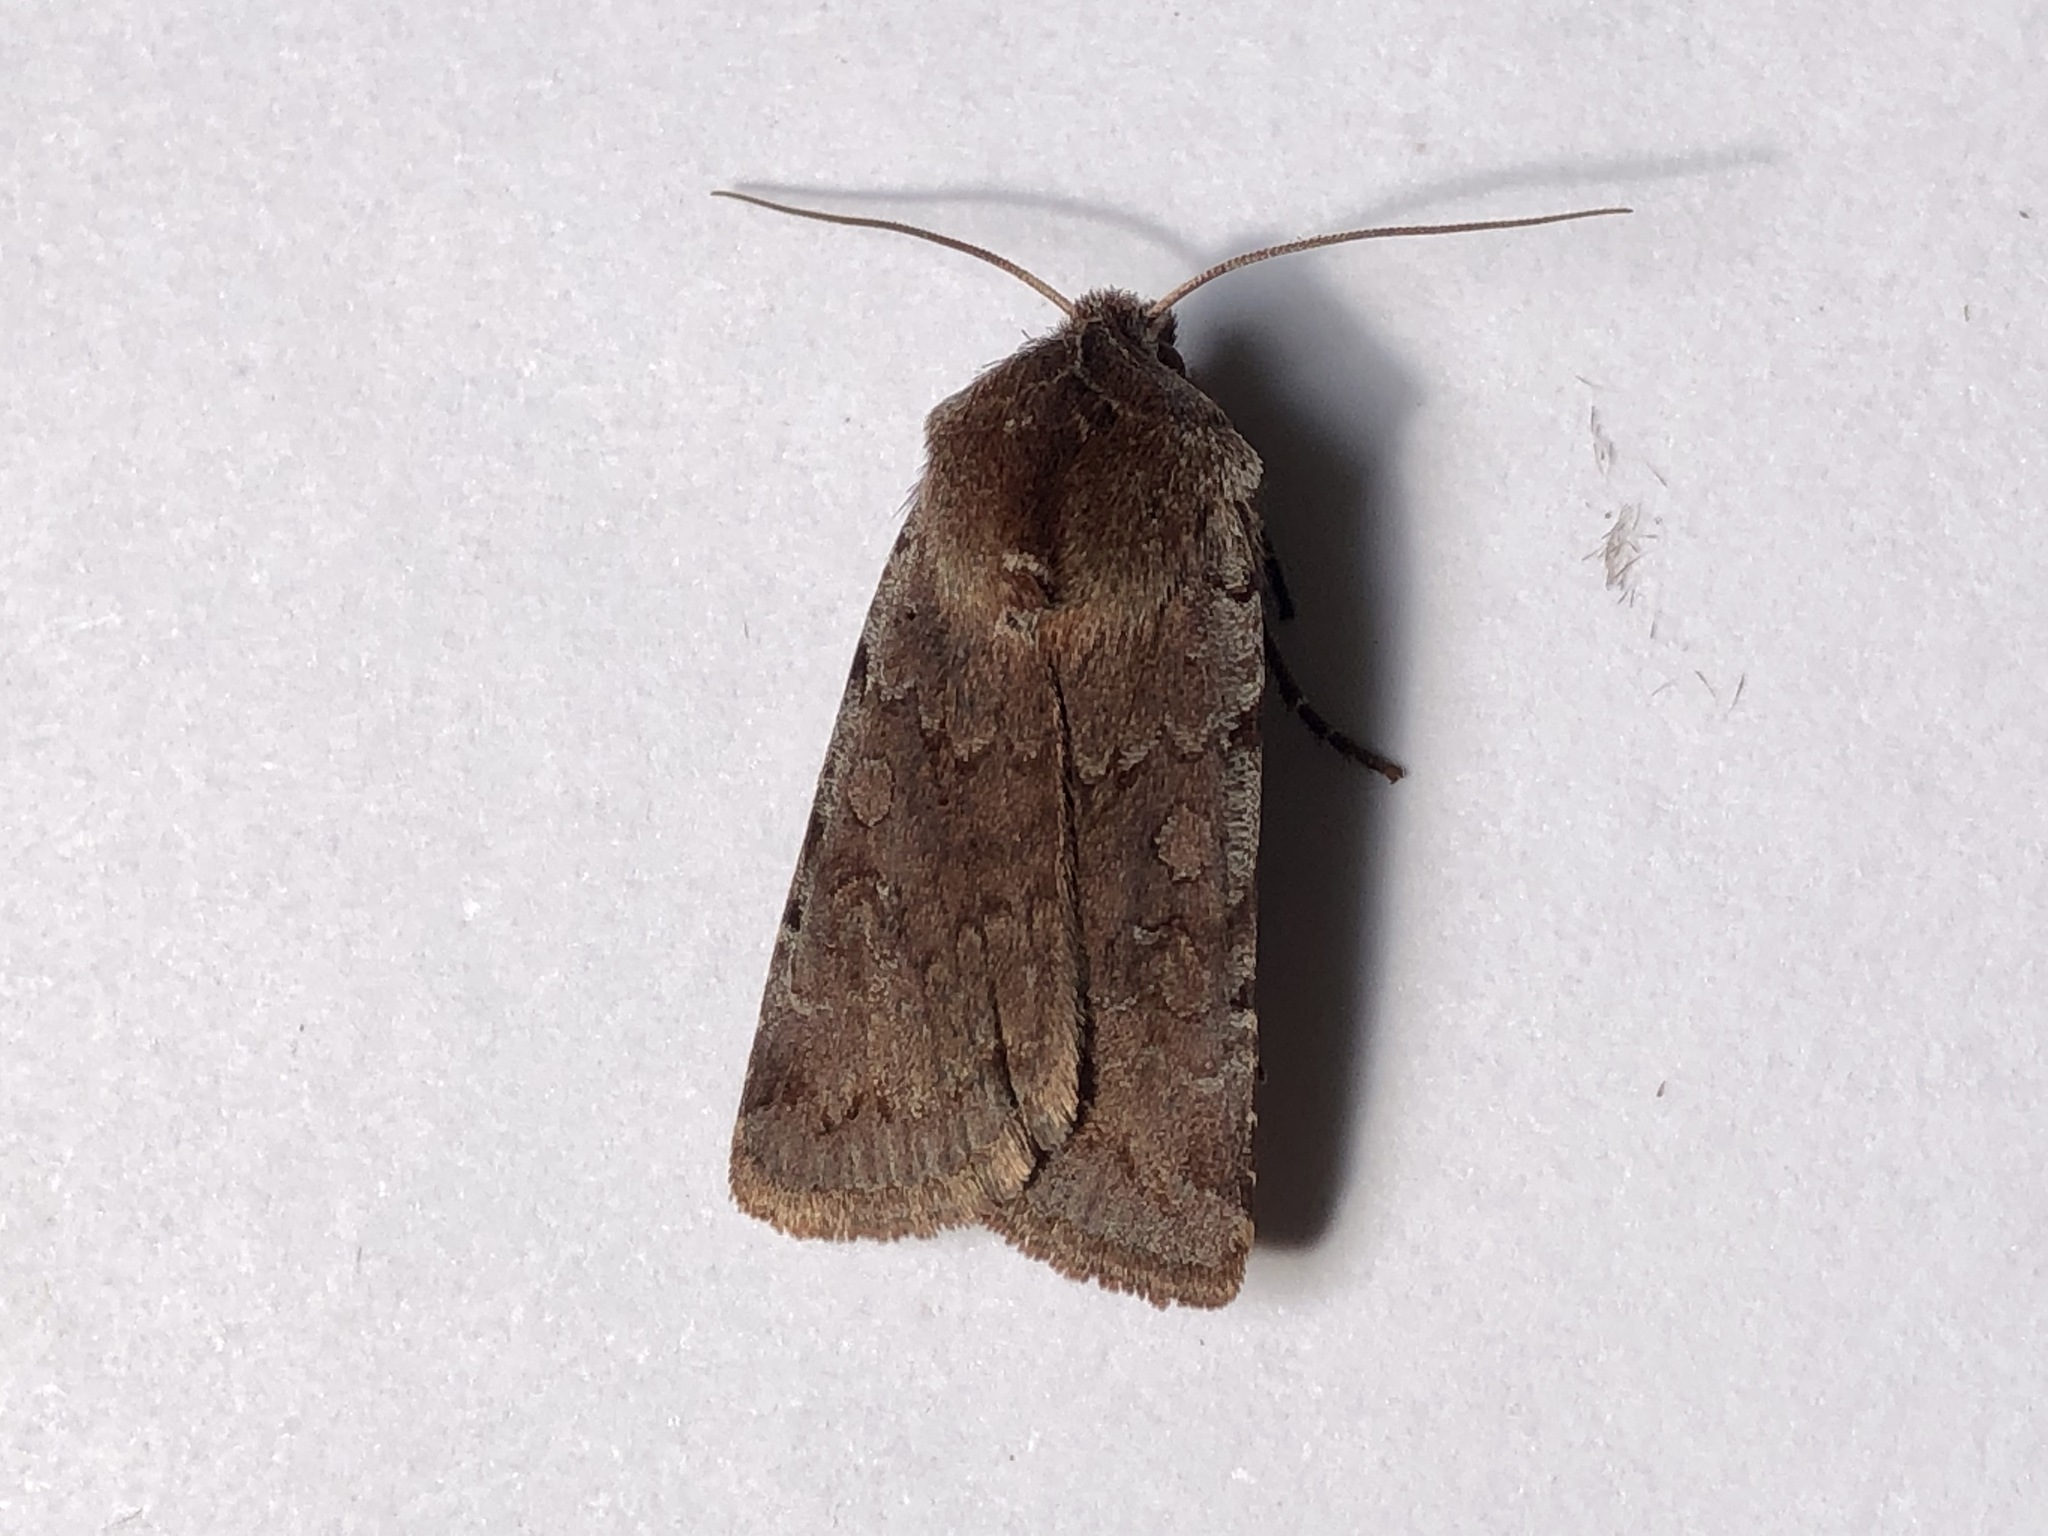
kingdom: Animalia
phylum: Arthropoda
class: Insecta
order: Lepidoptera
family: Noctuidae
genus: Cerastis
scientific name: Cerastis rubricosa
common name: Red chestnut
